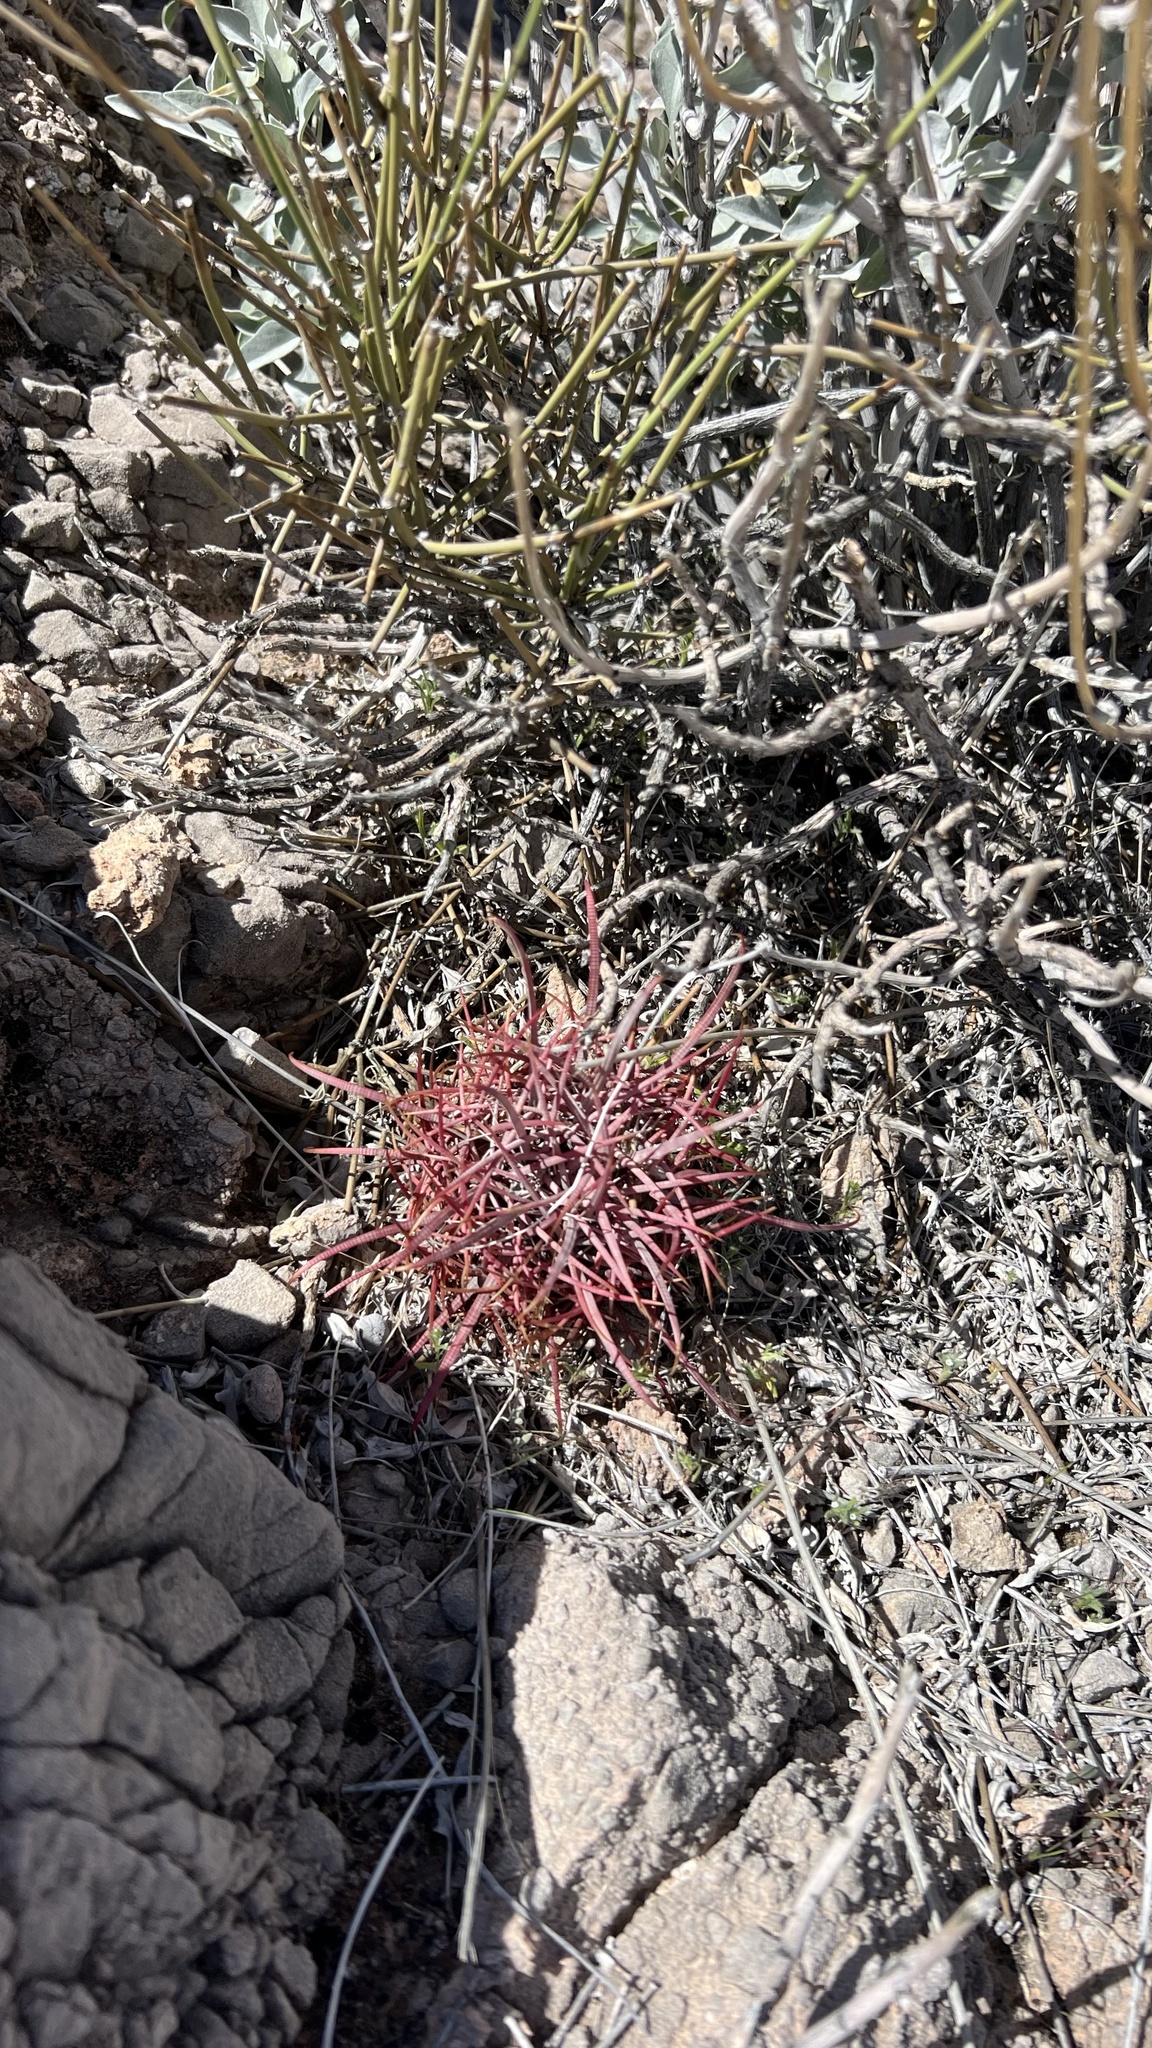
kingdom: Plantae
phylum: Tracheophyta
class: Magnoliopsida
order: Caryophyllales
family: Cactaceae
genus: Ferocactus
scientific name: Ferocactus cylindraceus
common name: California barrel cactus
